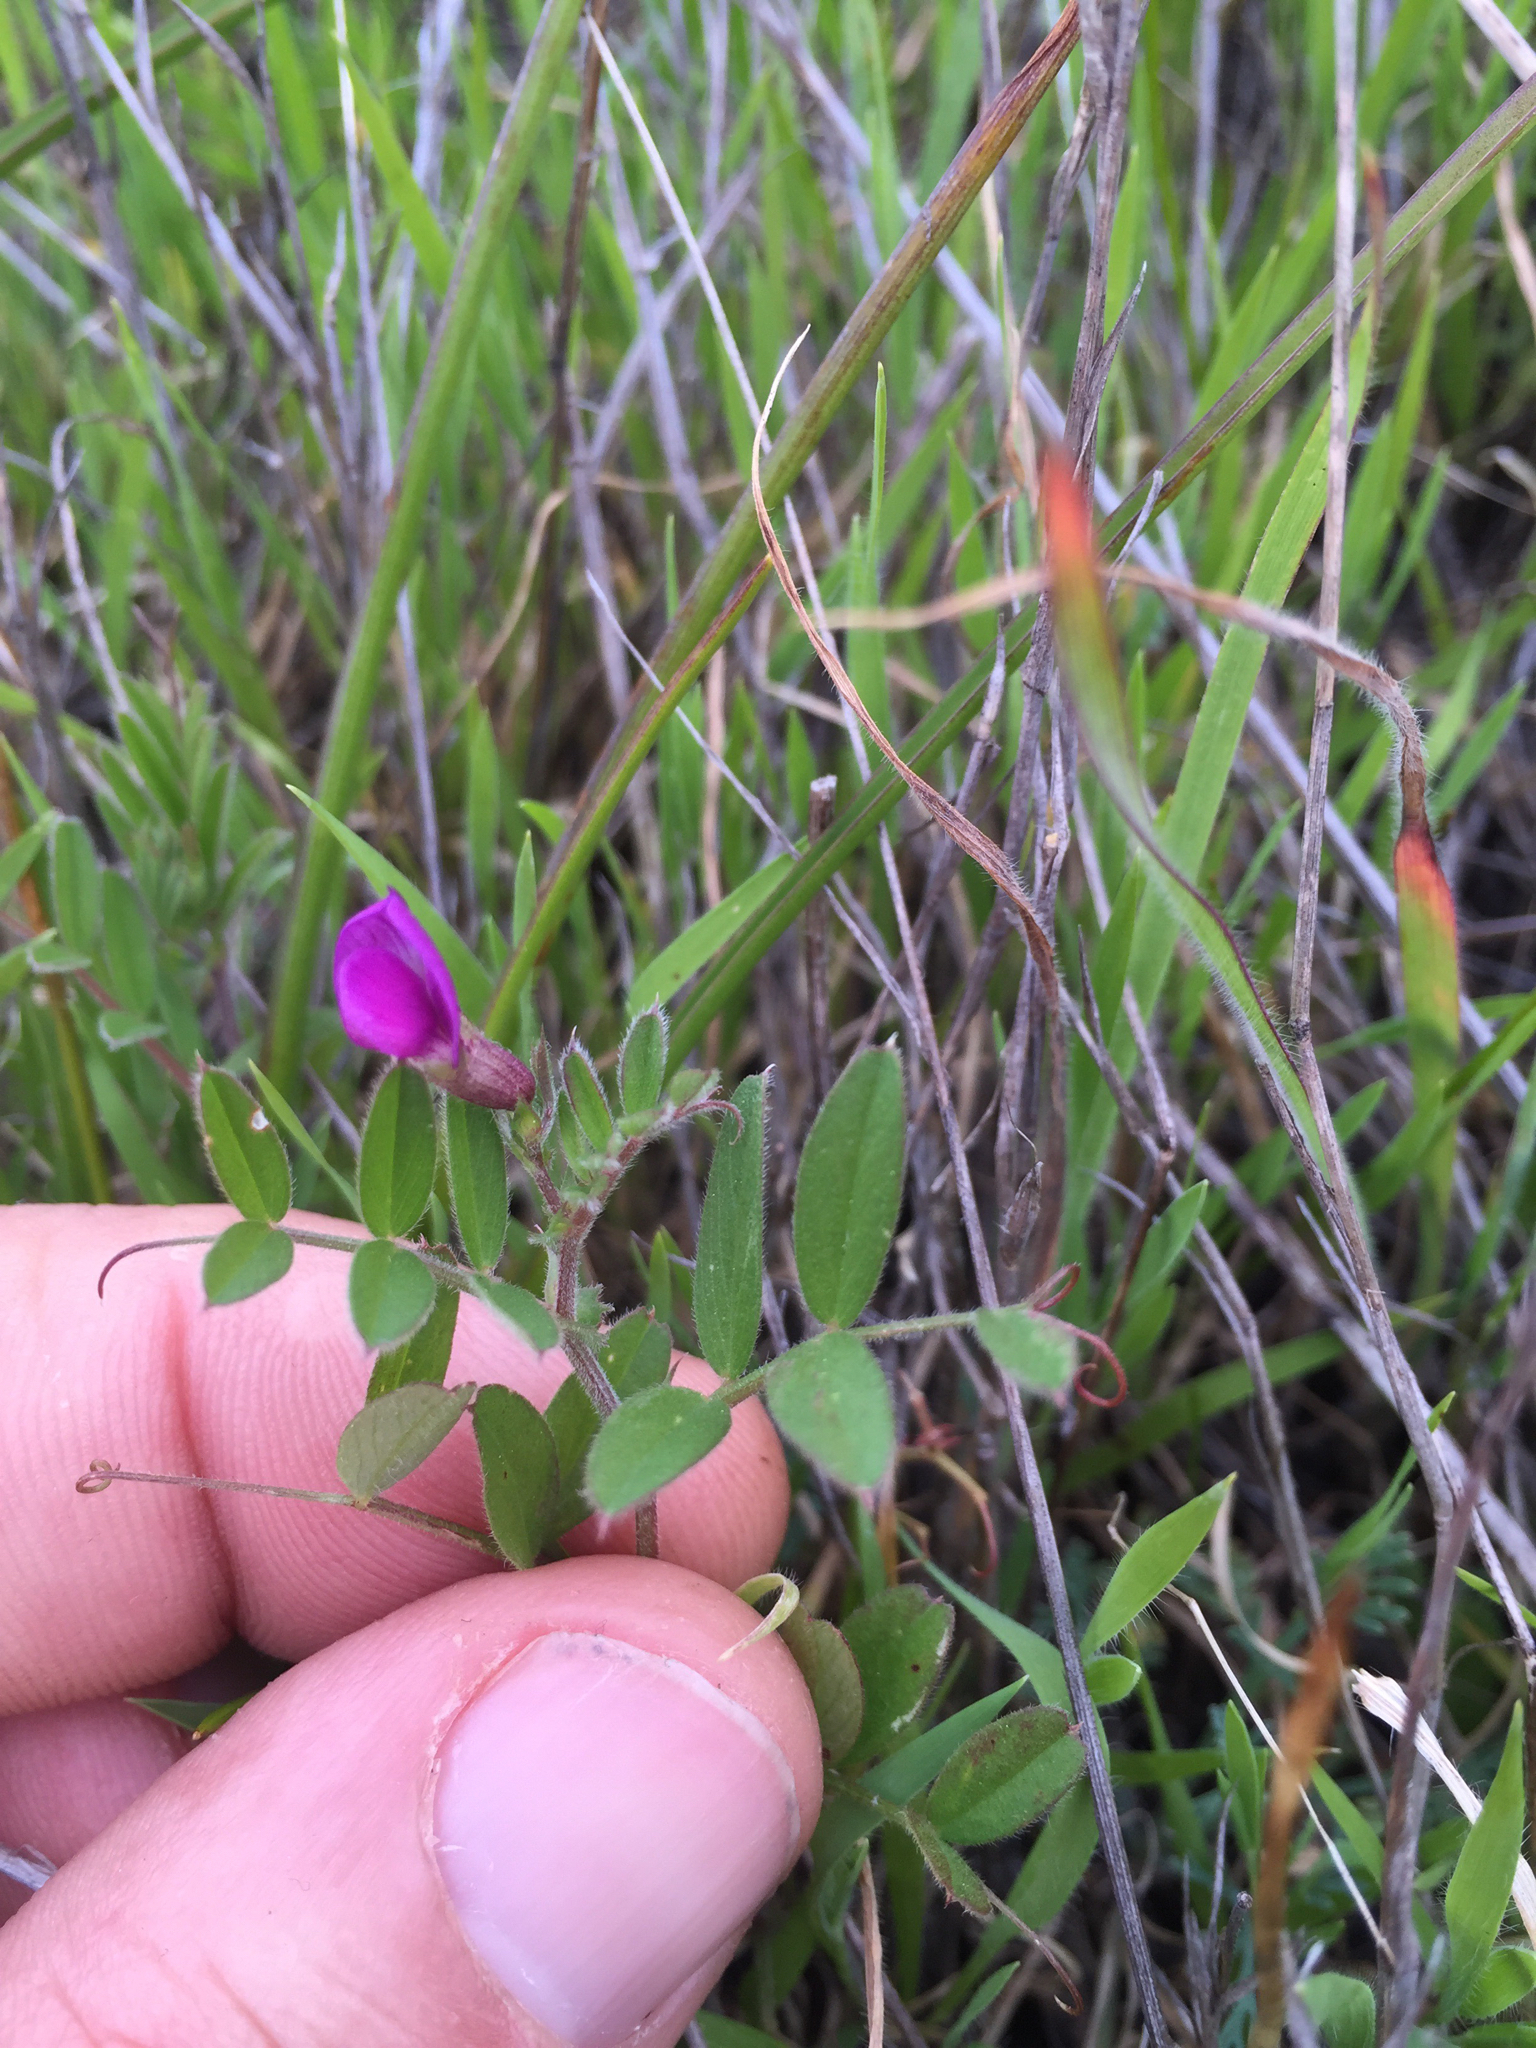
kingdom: Plantae
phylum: Tracheophyta
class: Magnoliopsida
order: Fabales
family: Fabaceae
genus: Vicia
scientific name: Vicia sativa
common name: Garden vetch
